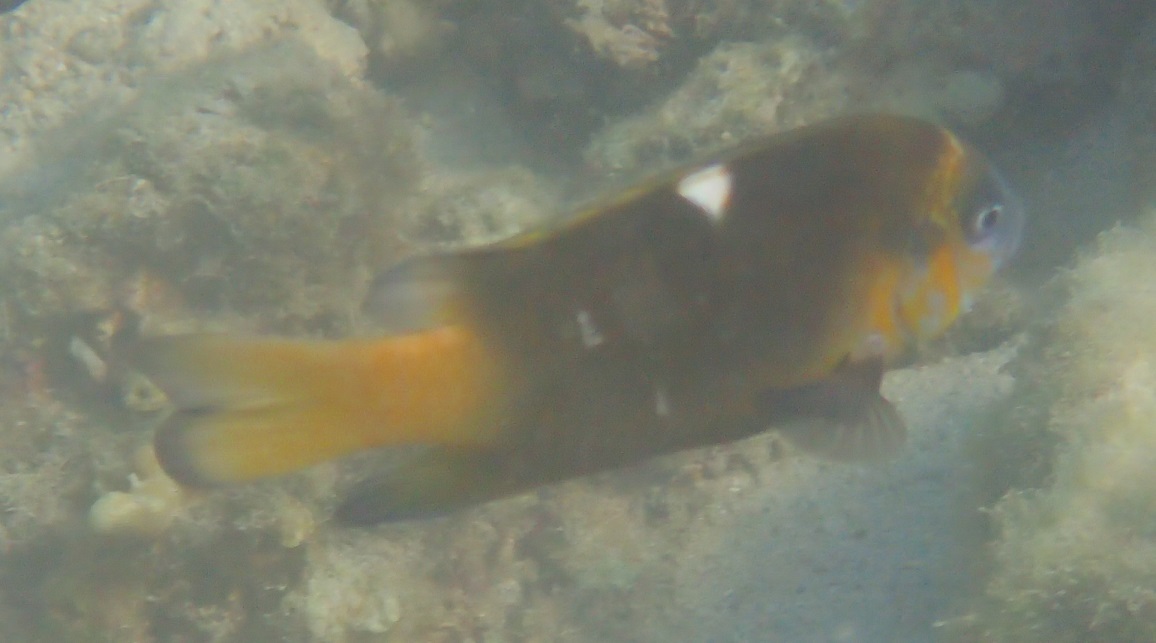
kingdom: Animalia
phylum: Chordata
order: Perciformes
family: Pomacentridae
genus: Dischistodus
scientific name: Dischistodus chrysopoecilus
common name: White-spot damsel
